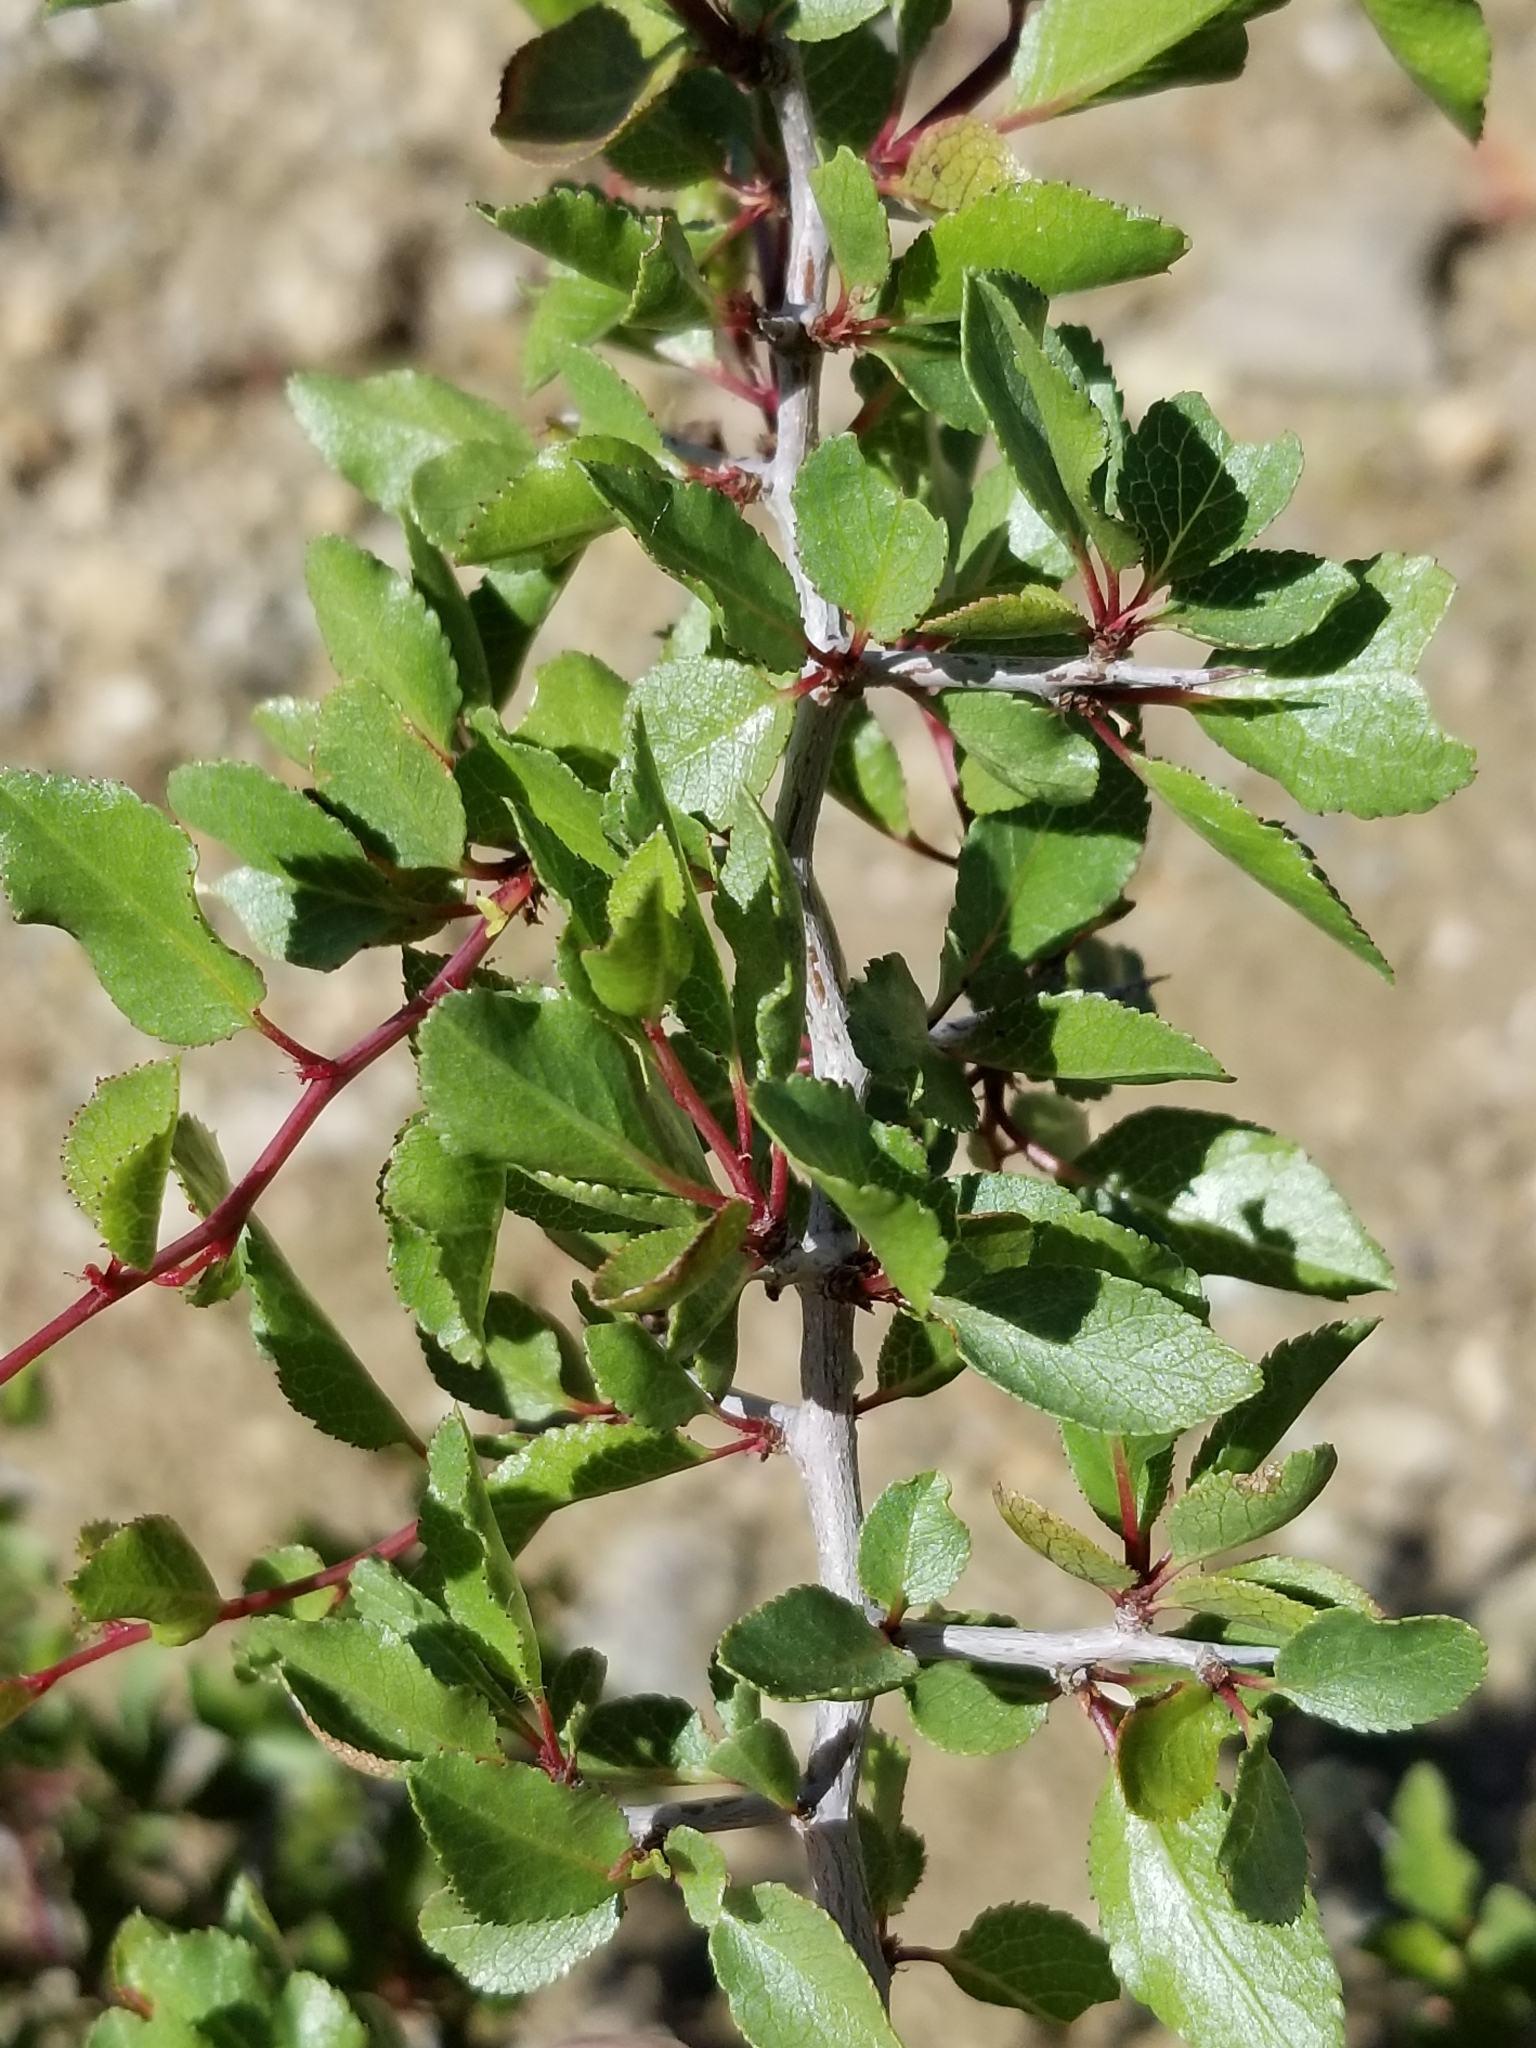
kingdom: Plantae
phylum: Tracheophyta
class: Magnoliopsida
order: Rosales
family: Rosaceae
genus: Prunus
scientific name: Prunus fremontii
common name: Desert apricot
